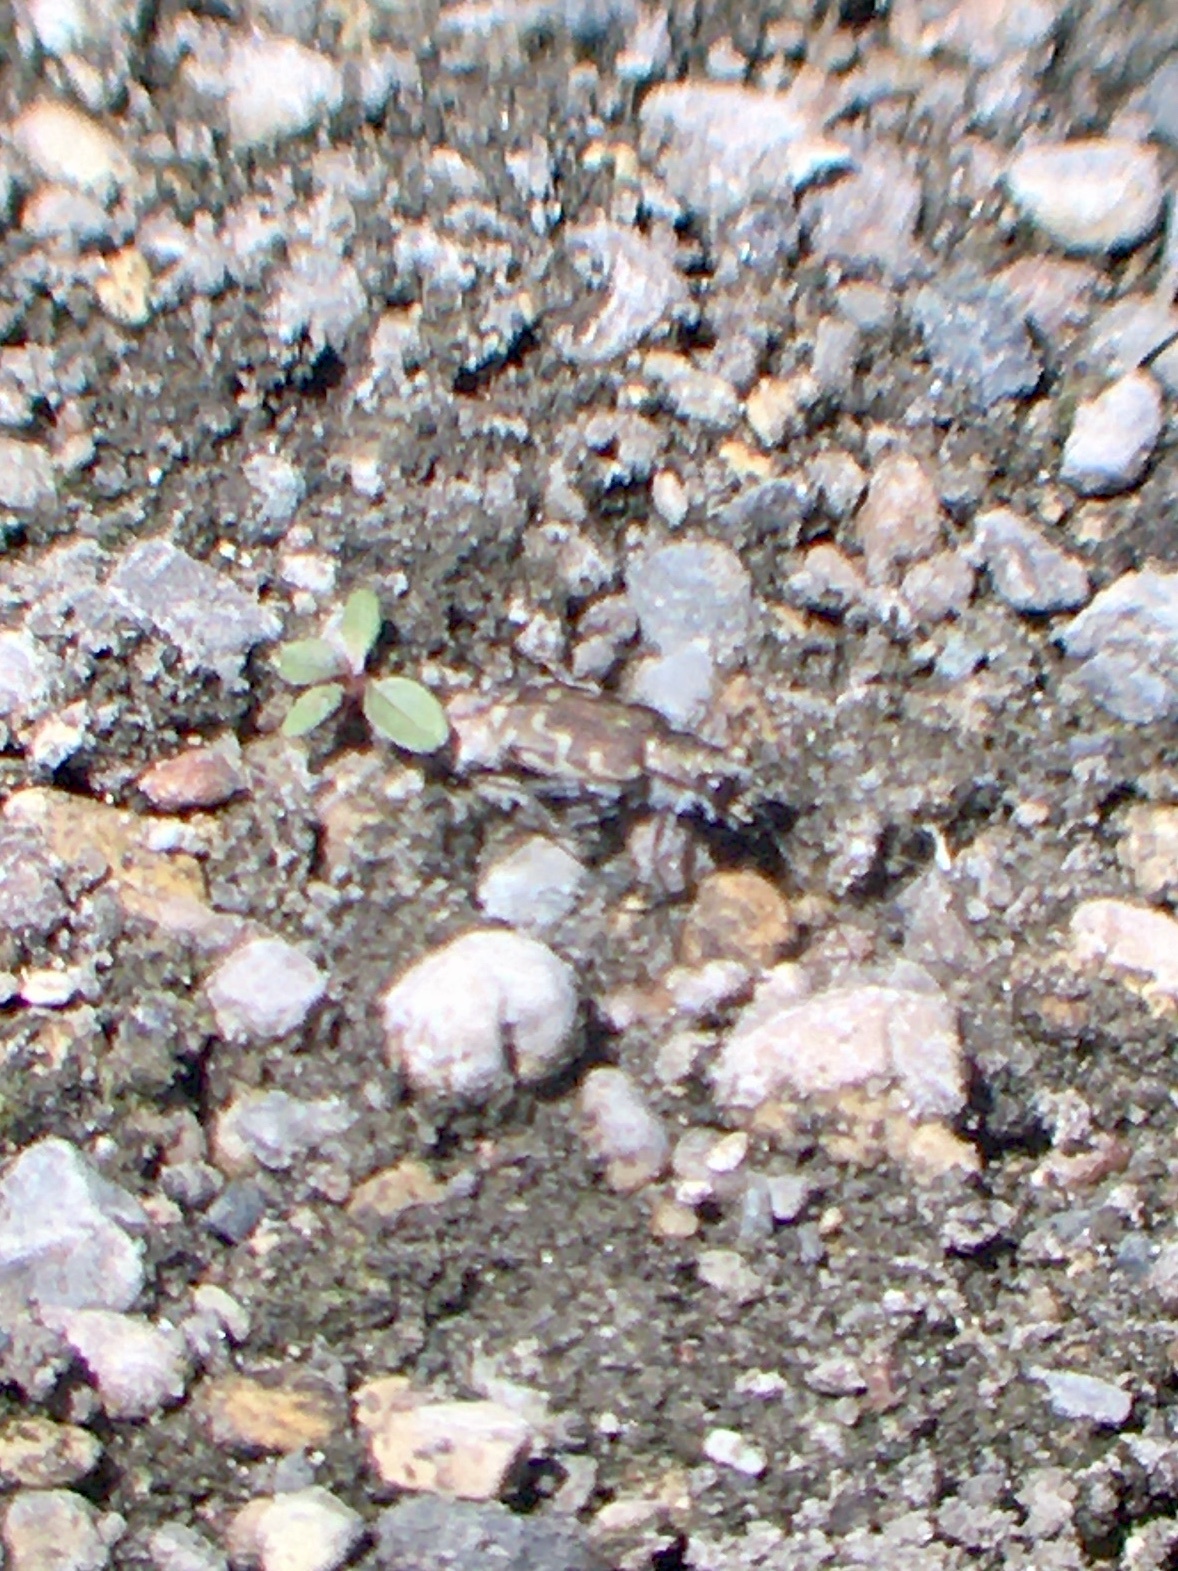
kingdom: Animalia
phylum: Arthropoda
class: Insecta
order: Coleoptera
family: Carabidae
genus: Cicindela
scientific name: Cicindela repanda
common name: Bronzed tiger beetle
